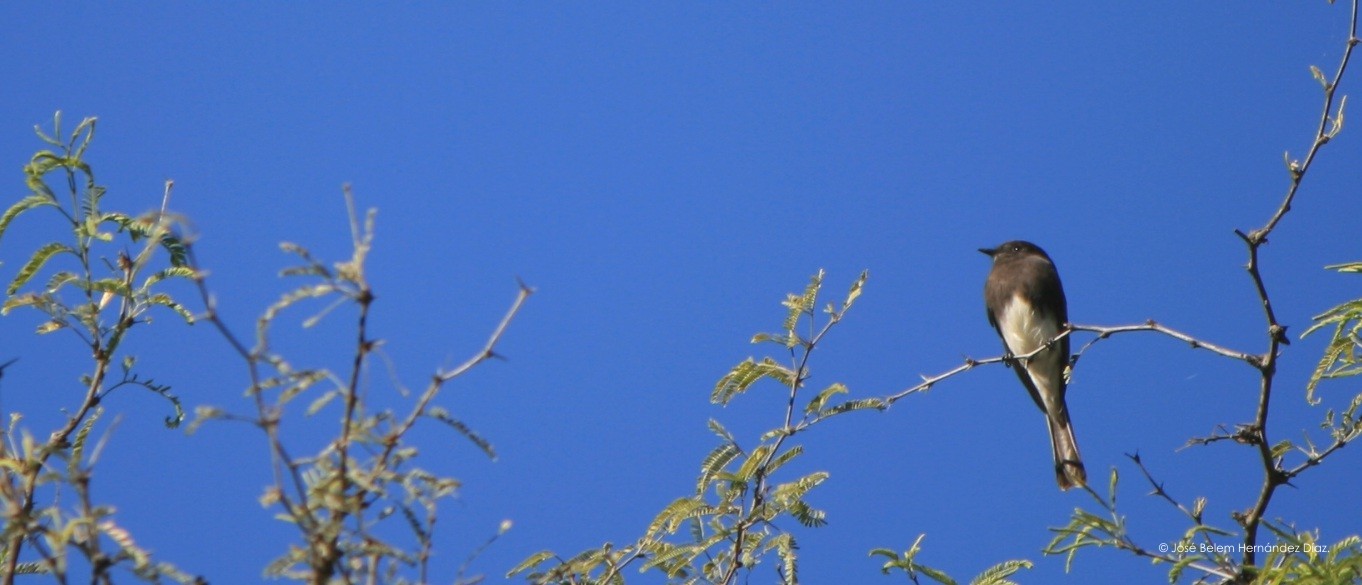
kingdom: Animalia
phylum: Chordata
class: Aves
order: Passeriformes
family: Tyrannidae
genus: Sayornis
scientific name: Sayornis nigricans
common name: Black phoebe
